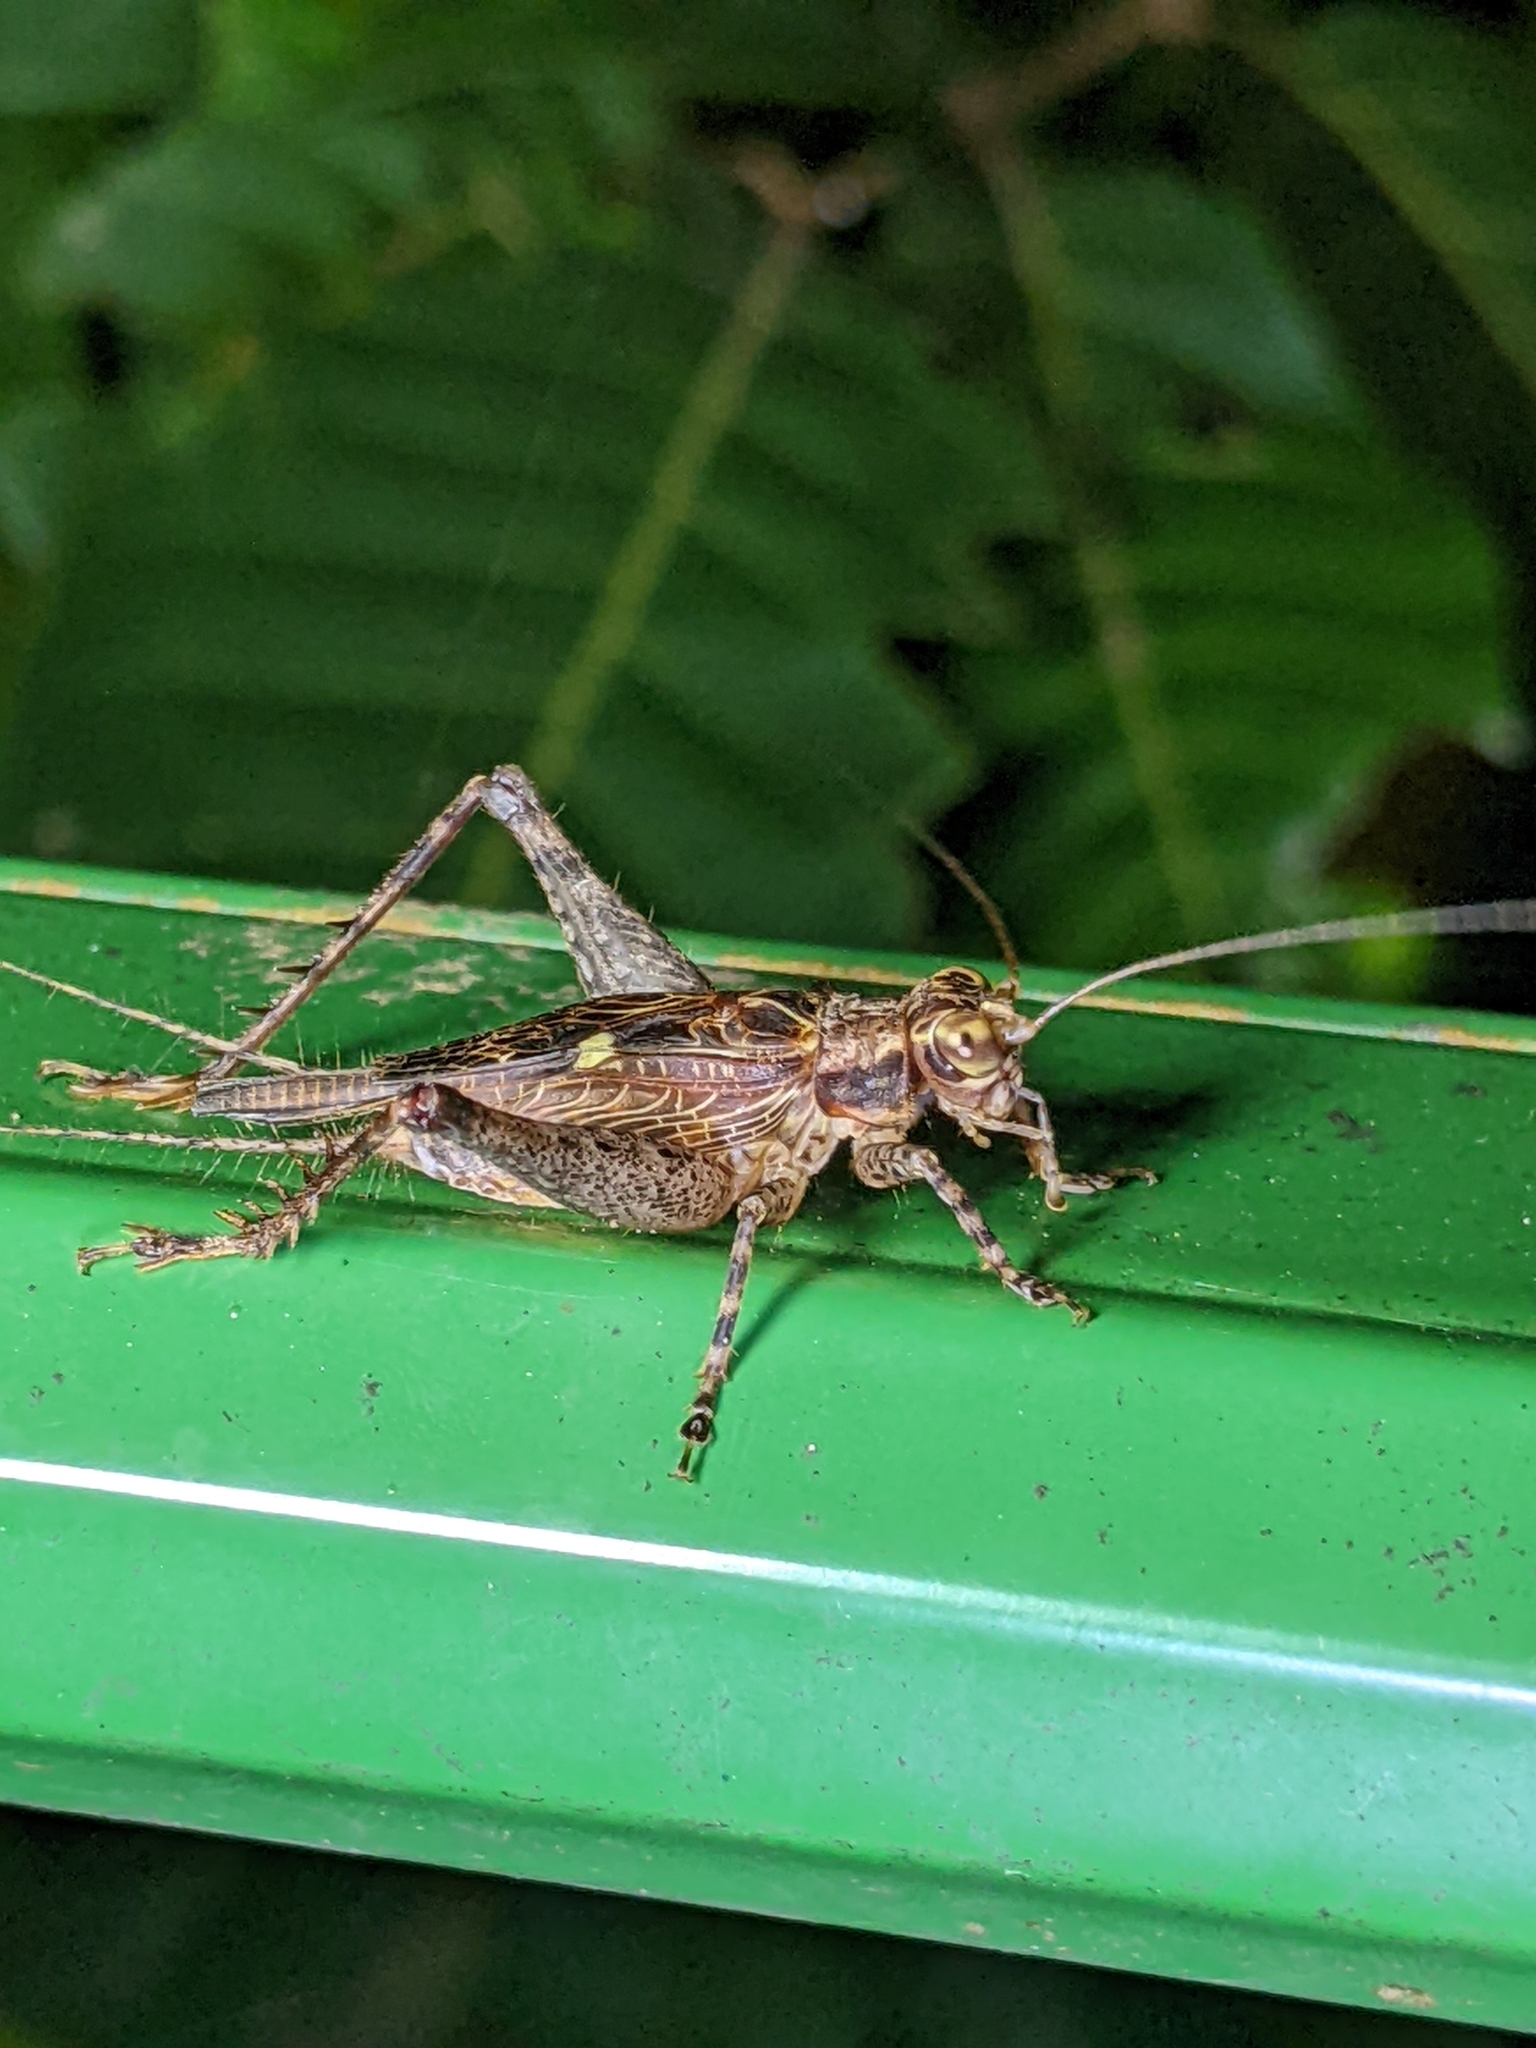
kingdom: Animalia
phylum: Arthropoda
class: Insecta
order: Orthoptera
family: Gryllidae
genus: Cardiodactylus
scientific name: Cardiodactylus singapura
